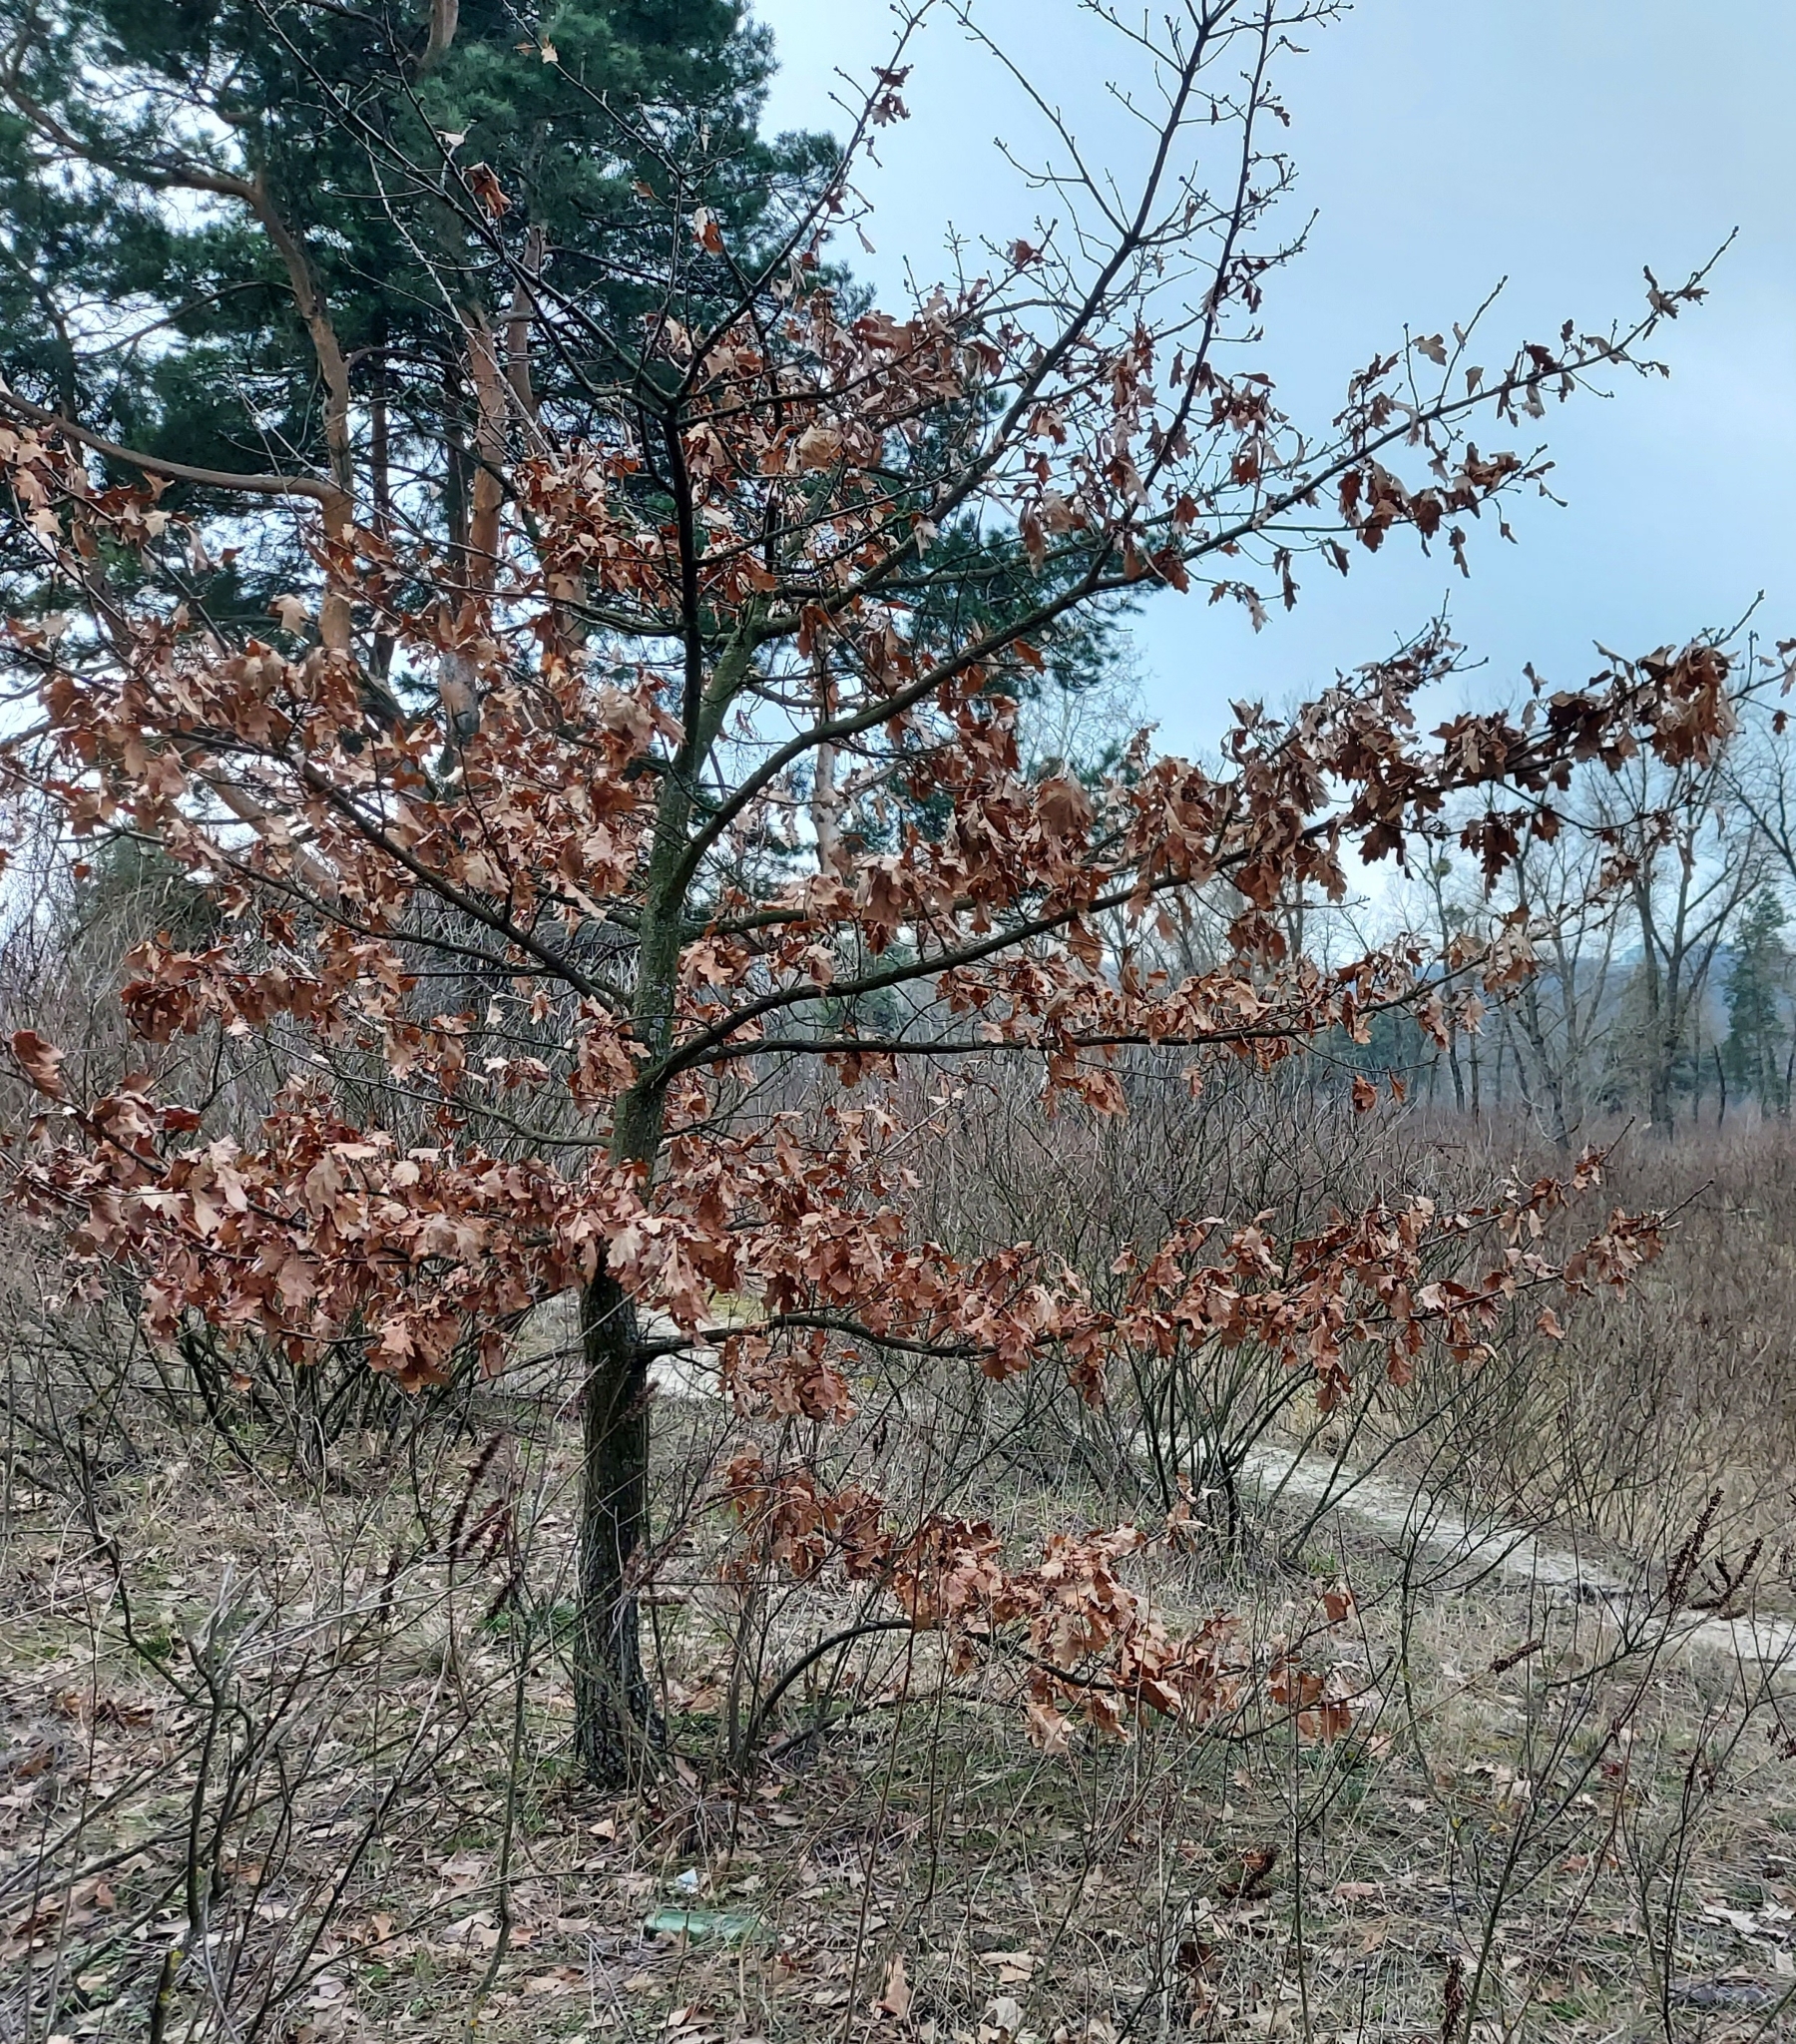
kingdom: Plantae
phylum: Tracheophyta
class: Magnoliopsida
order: Fagales
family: Fagaceae
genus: Quercus
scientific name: Quercus robur
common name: Pedunculate oak
